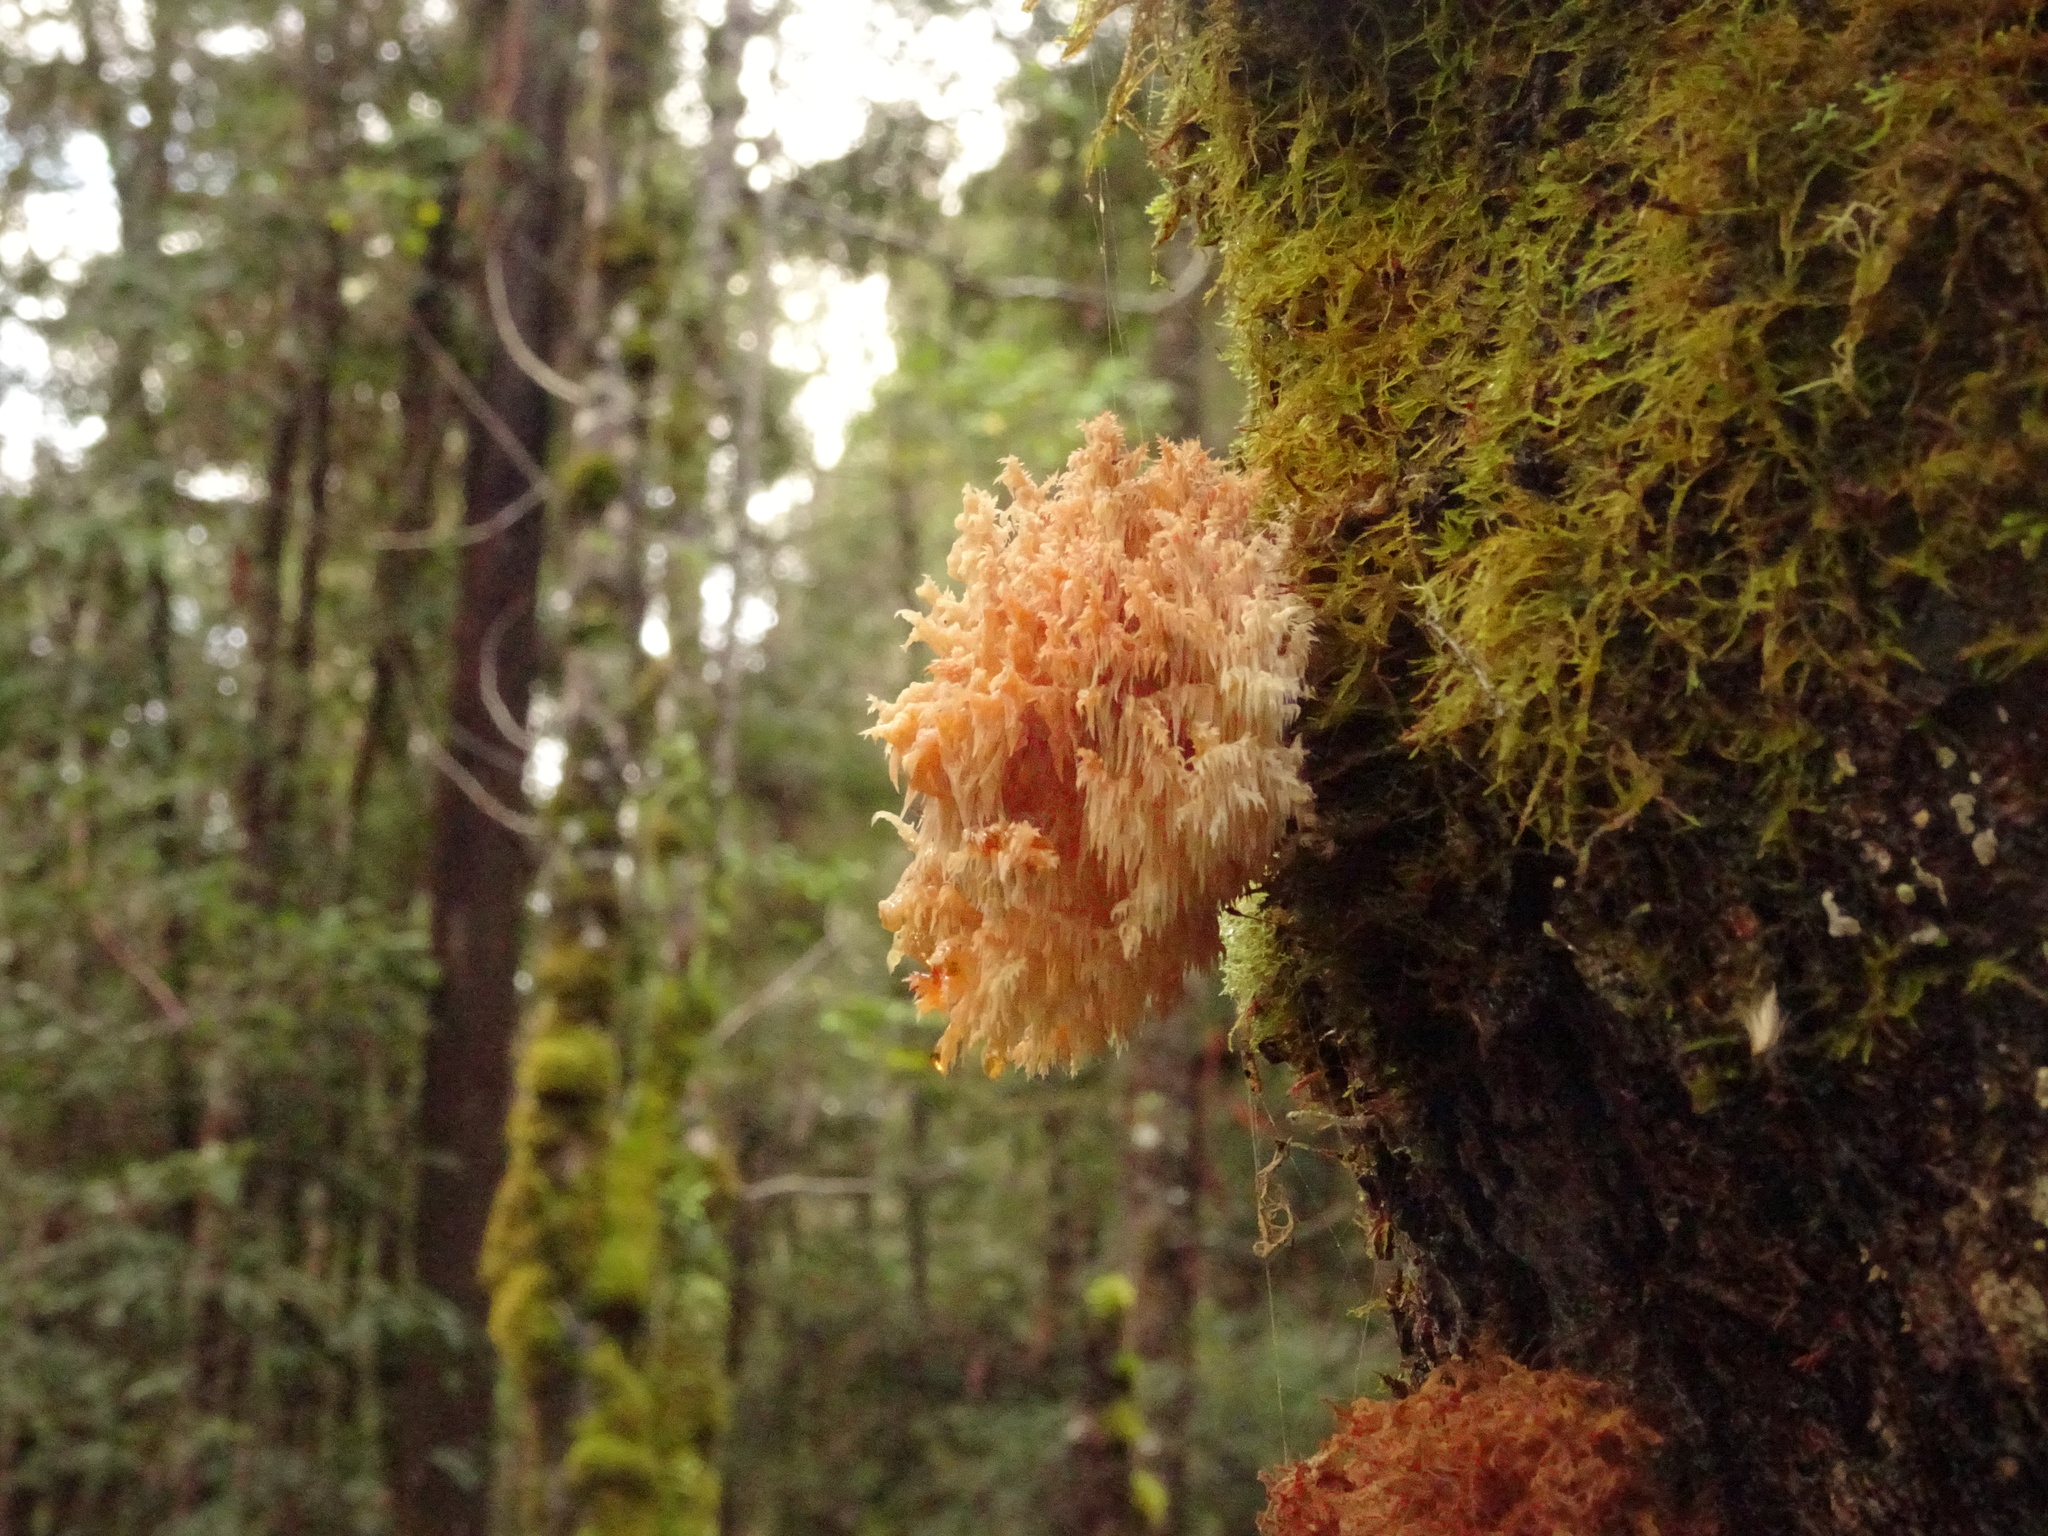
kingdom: Fungi
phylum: Basidiomycota
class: Agaricomycetes
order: Russulales
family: Hericiaceae
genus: Hericium
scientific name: Hericium coralloides
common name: Coral tooth
